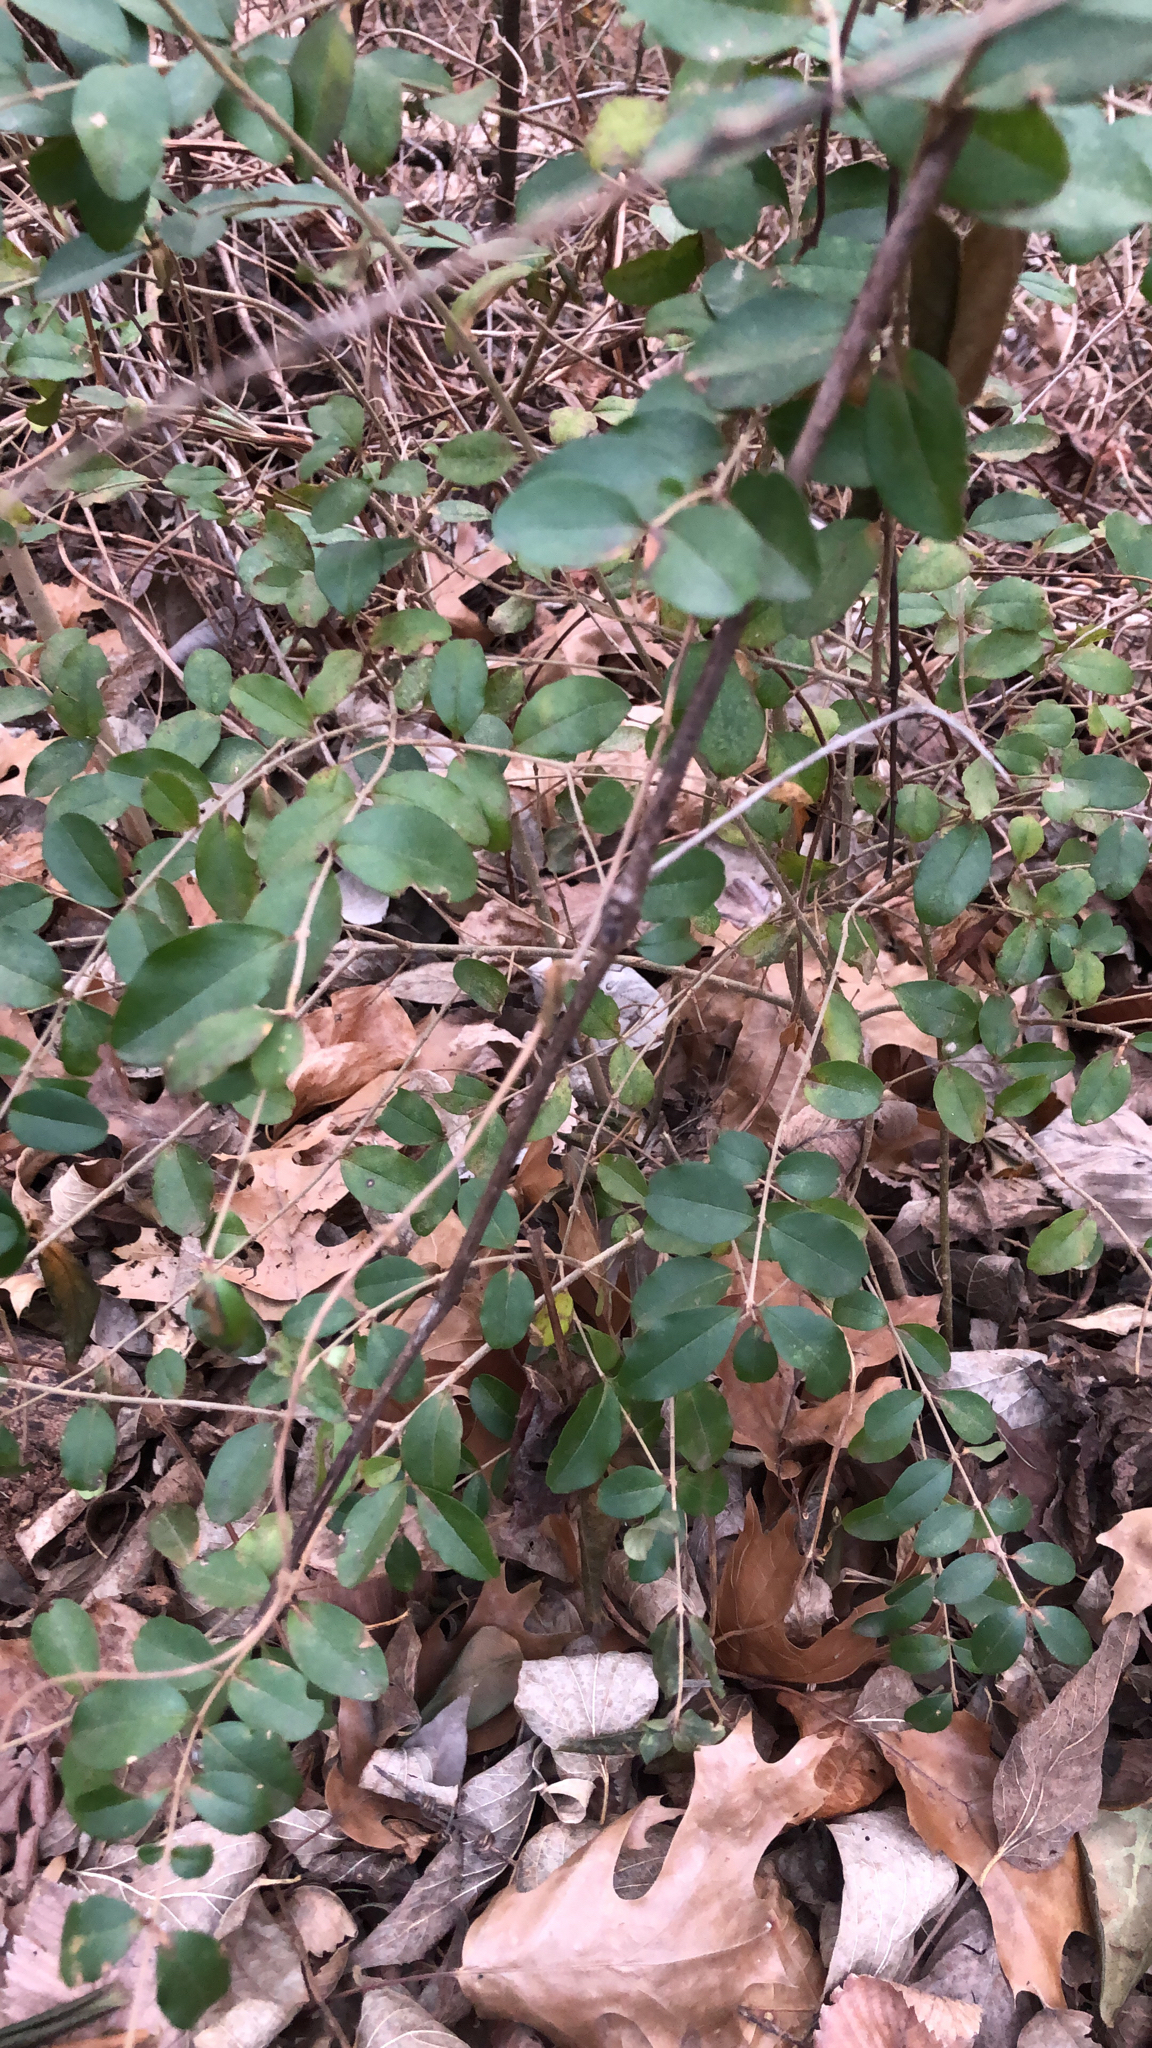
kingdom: Plantae
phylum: Tracheophyta
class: Magnoliopsida
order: Lamiales
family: Oleaceae
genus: Ligustrum
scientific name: Ligustrum sinense
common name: Chinese privet
